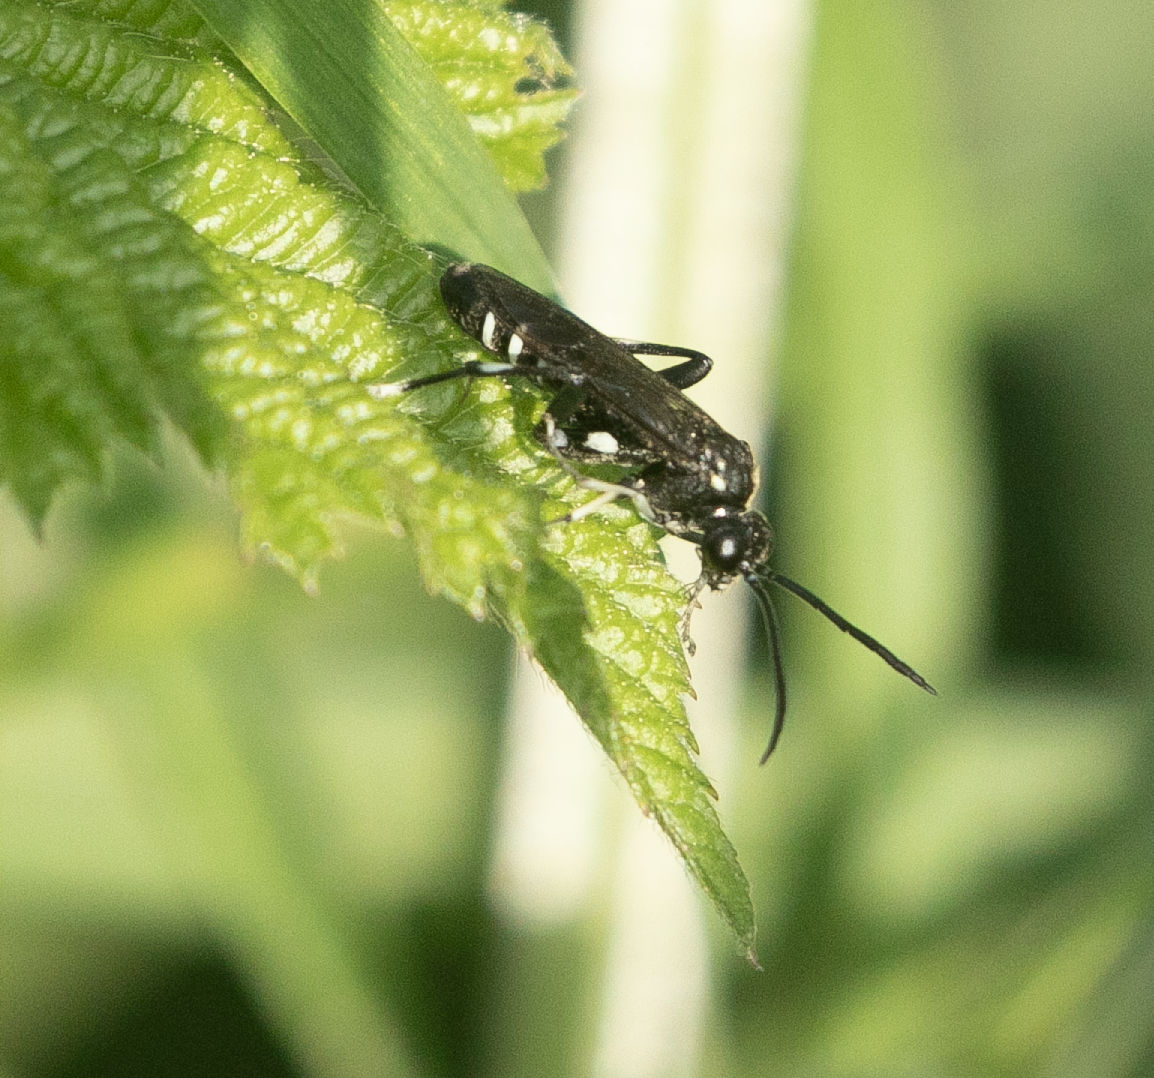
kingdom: Animalia
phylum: Arthropoda
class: Insecta
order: Hymenoptera
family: Tenthredinidae
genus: Macrophya
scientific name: Macrophya duodecimpunctata
